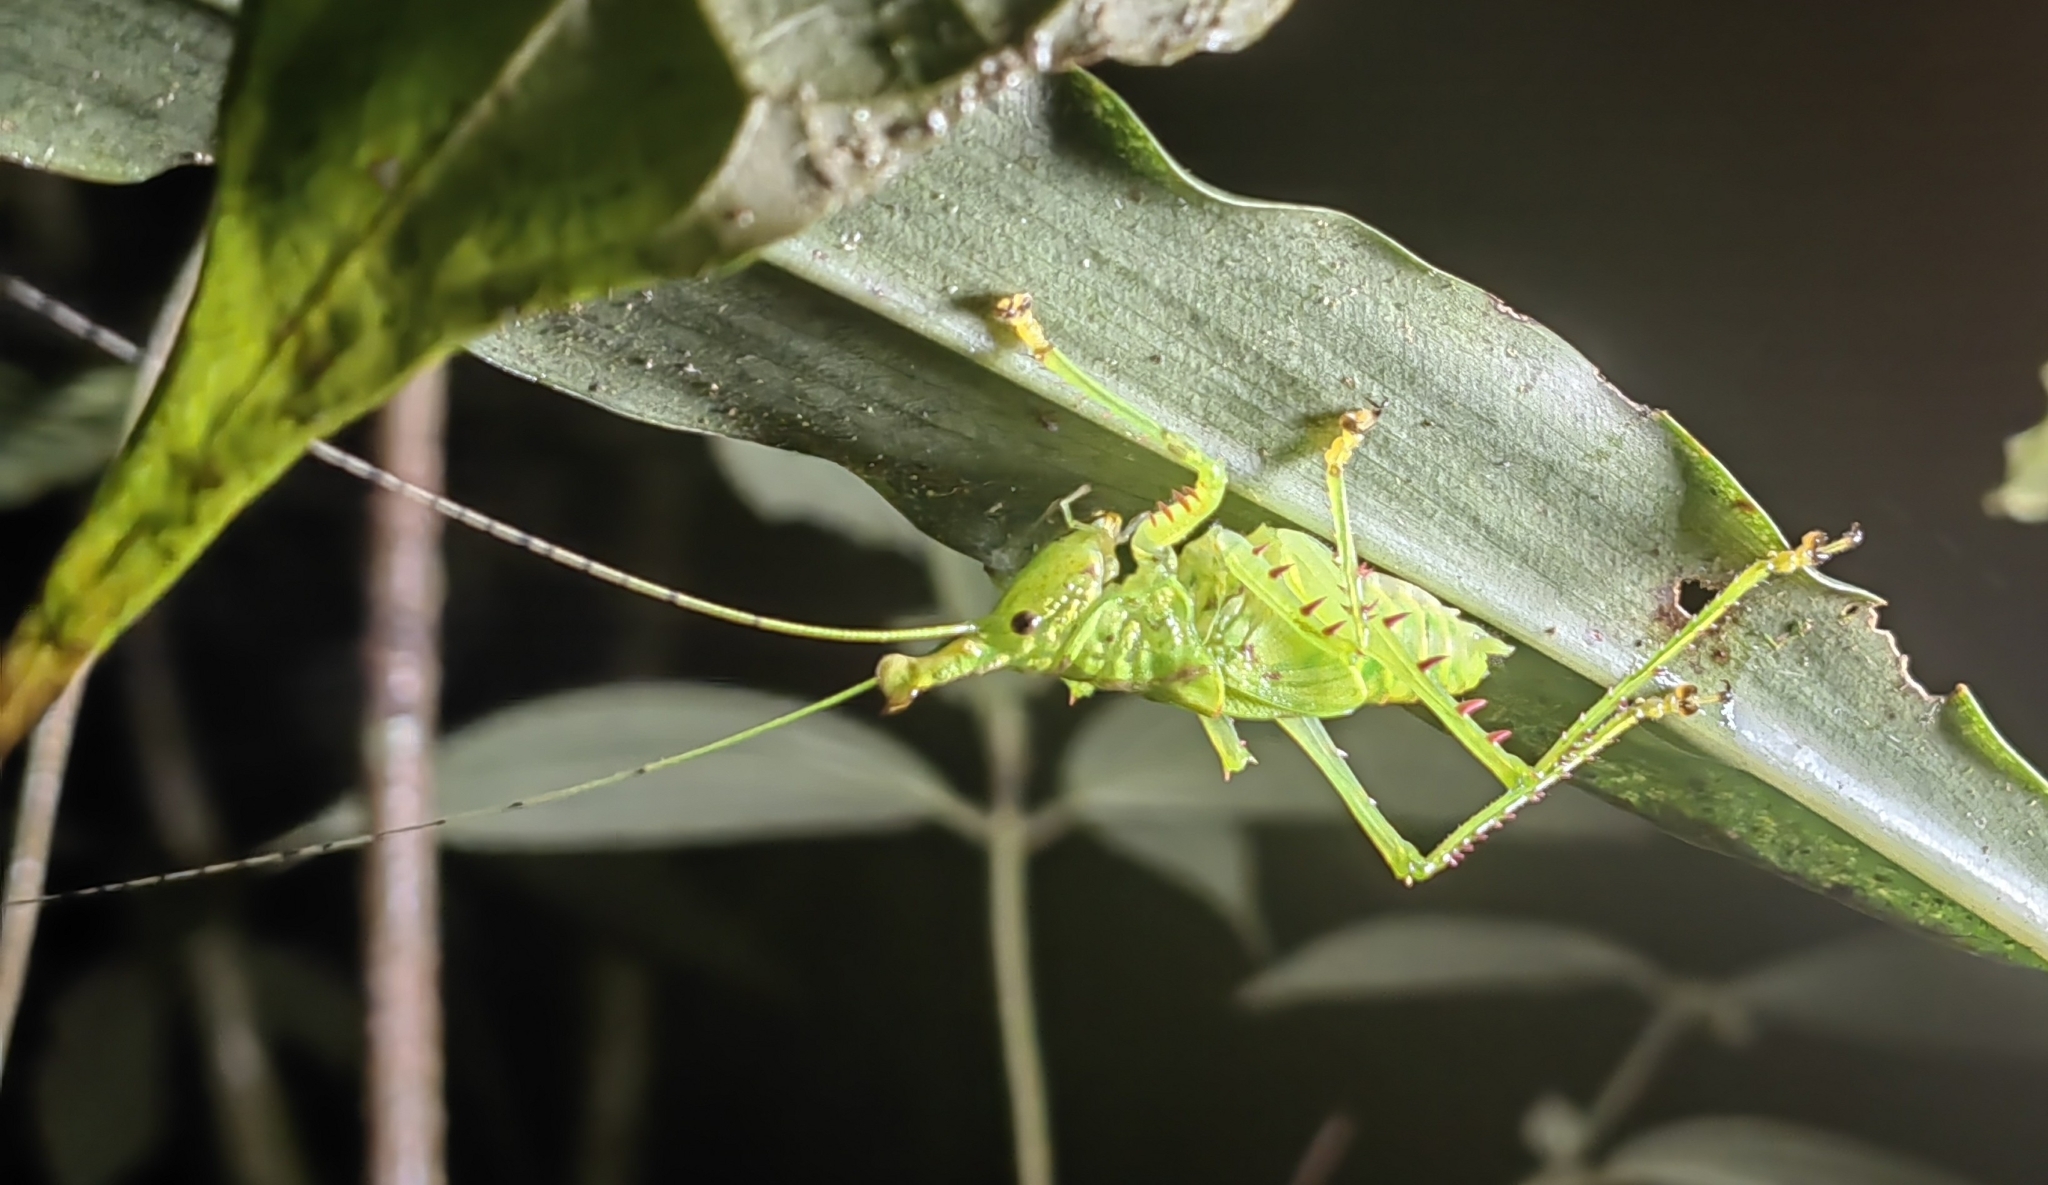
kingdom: Animalia
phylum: Arthropoda
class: Insecta
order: Orthoptera
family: Tettigoniidae
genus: Copiphora
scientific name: Copiphora cochleata
